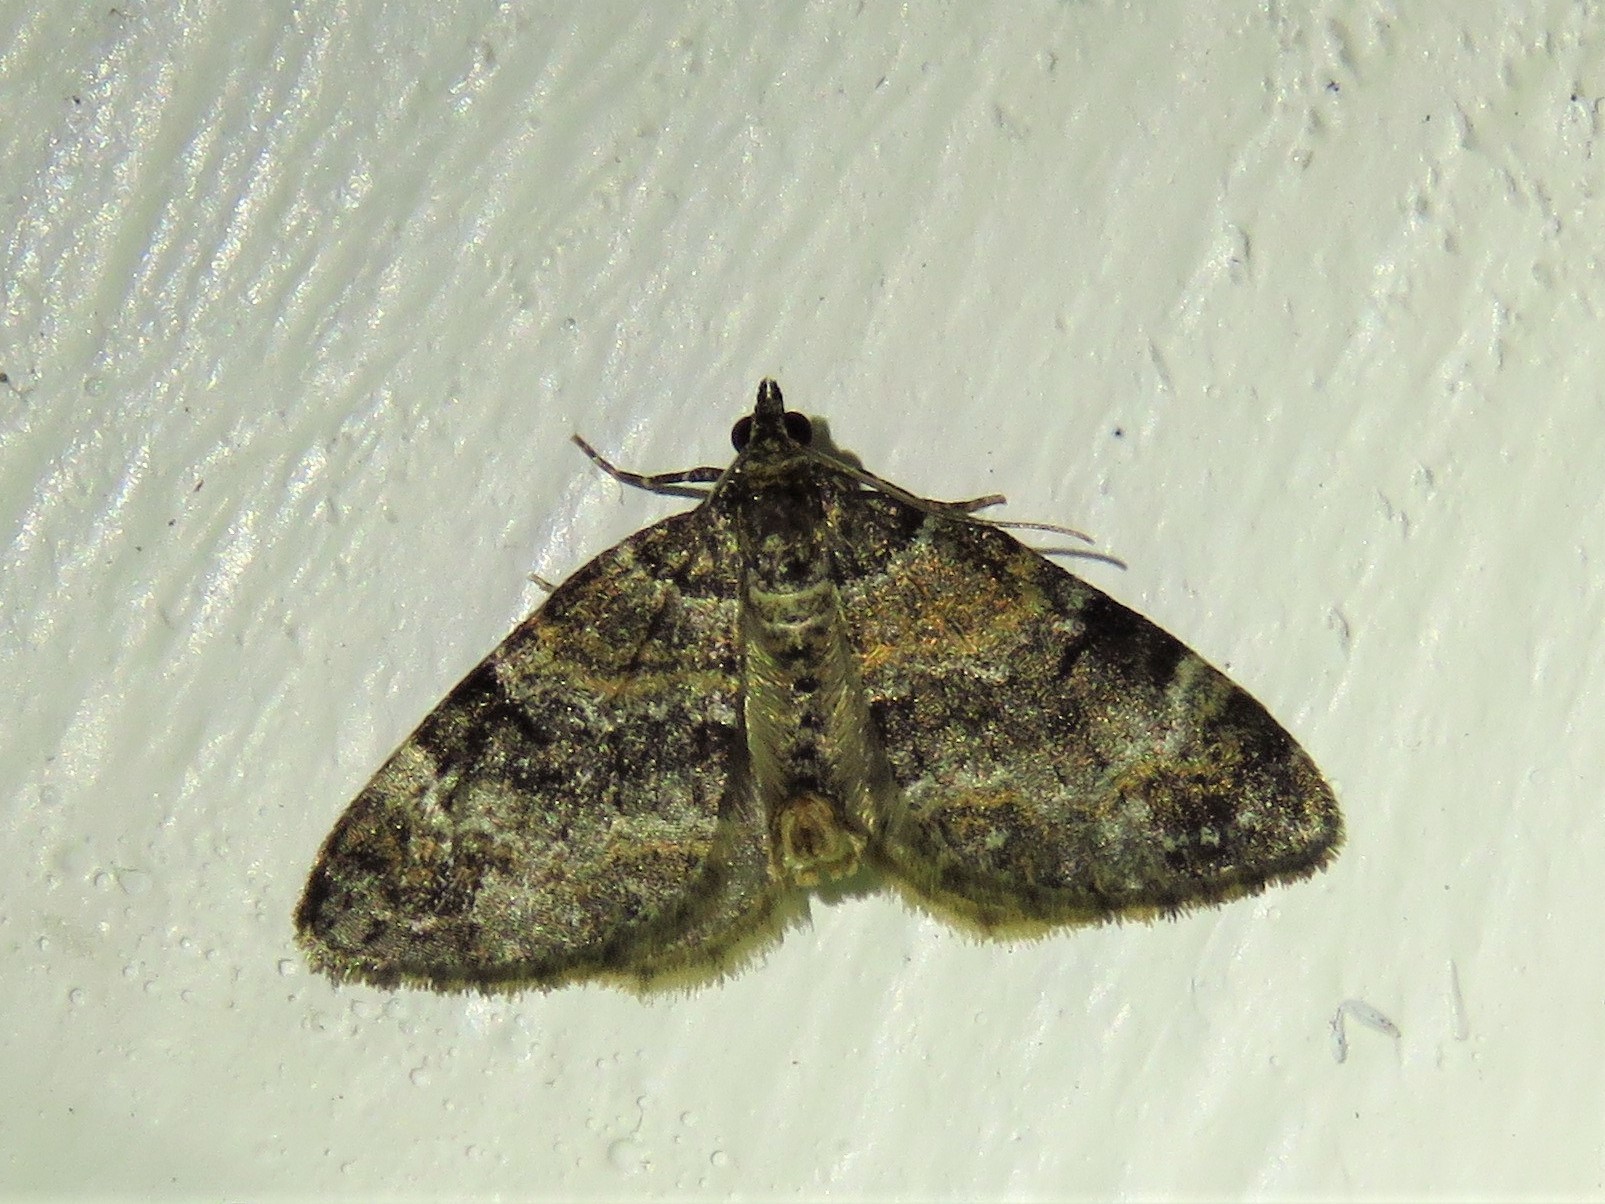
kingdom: Animalia
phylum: Arthropoda
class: Insecta
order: Lepidoptera
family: Geometridae
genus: Perizoma
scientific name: Perizoma taeniata
